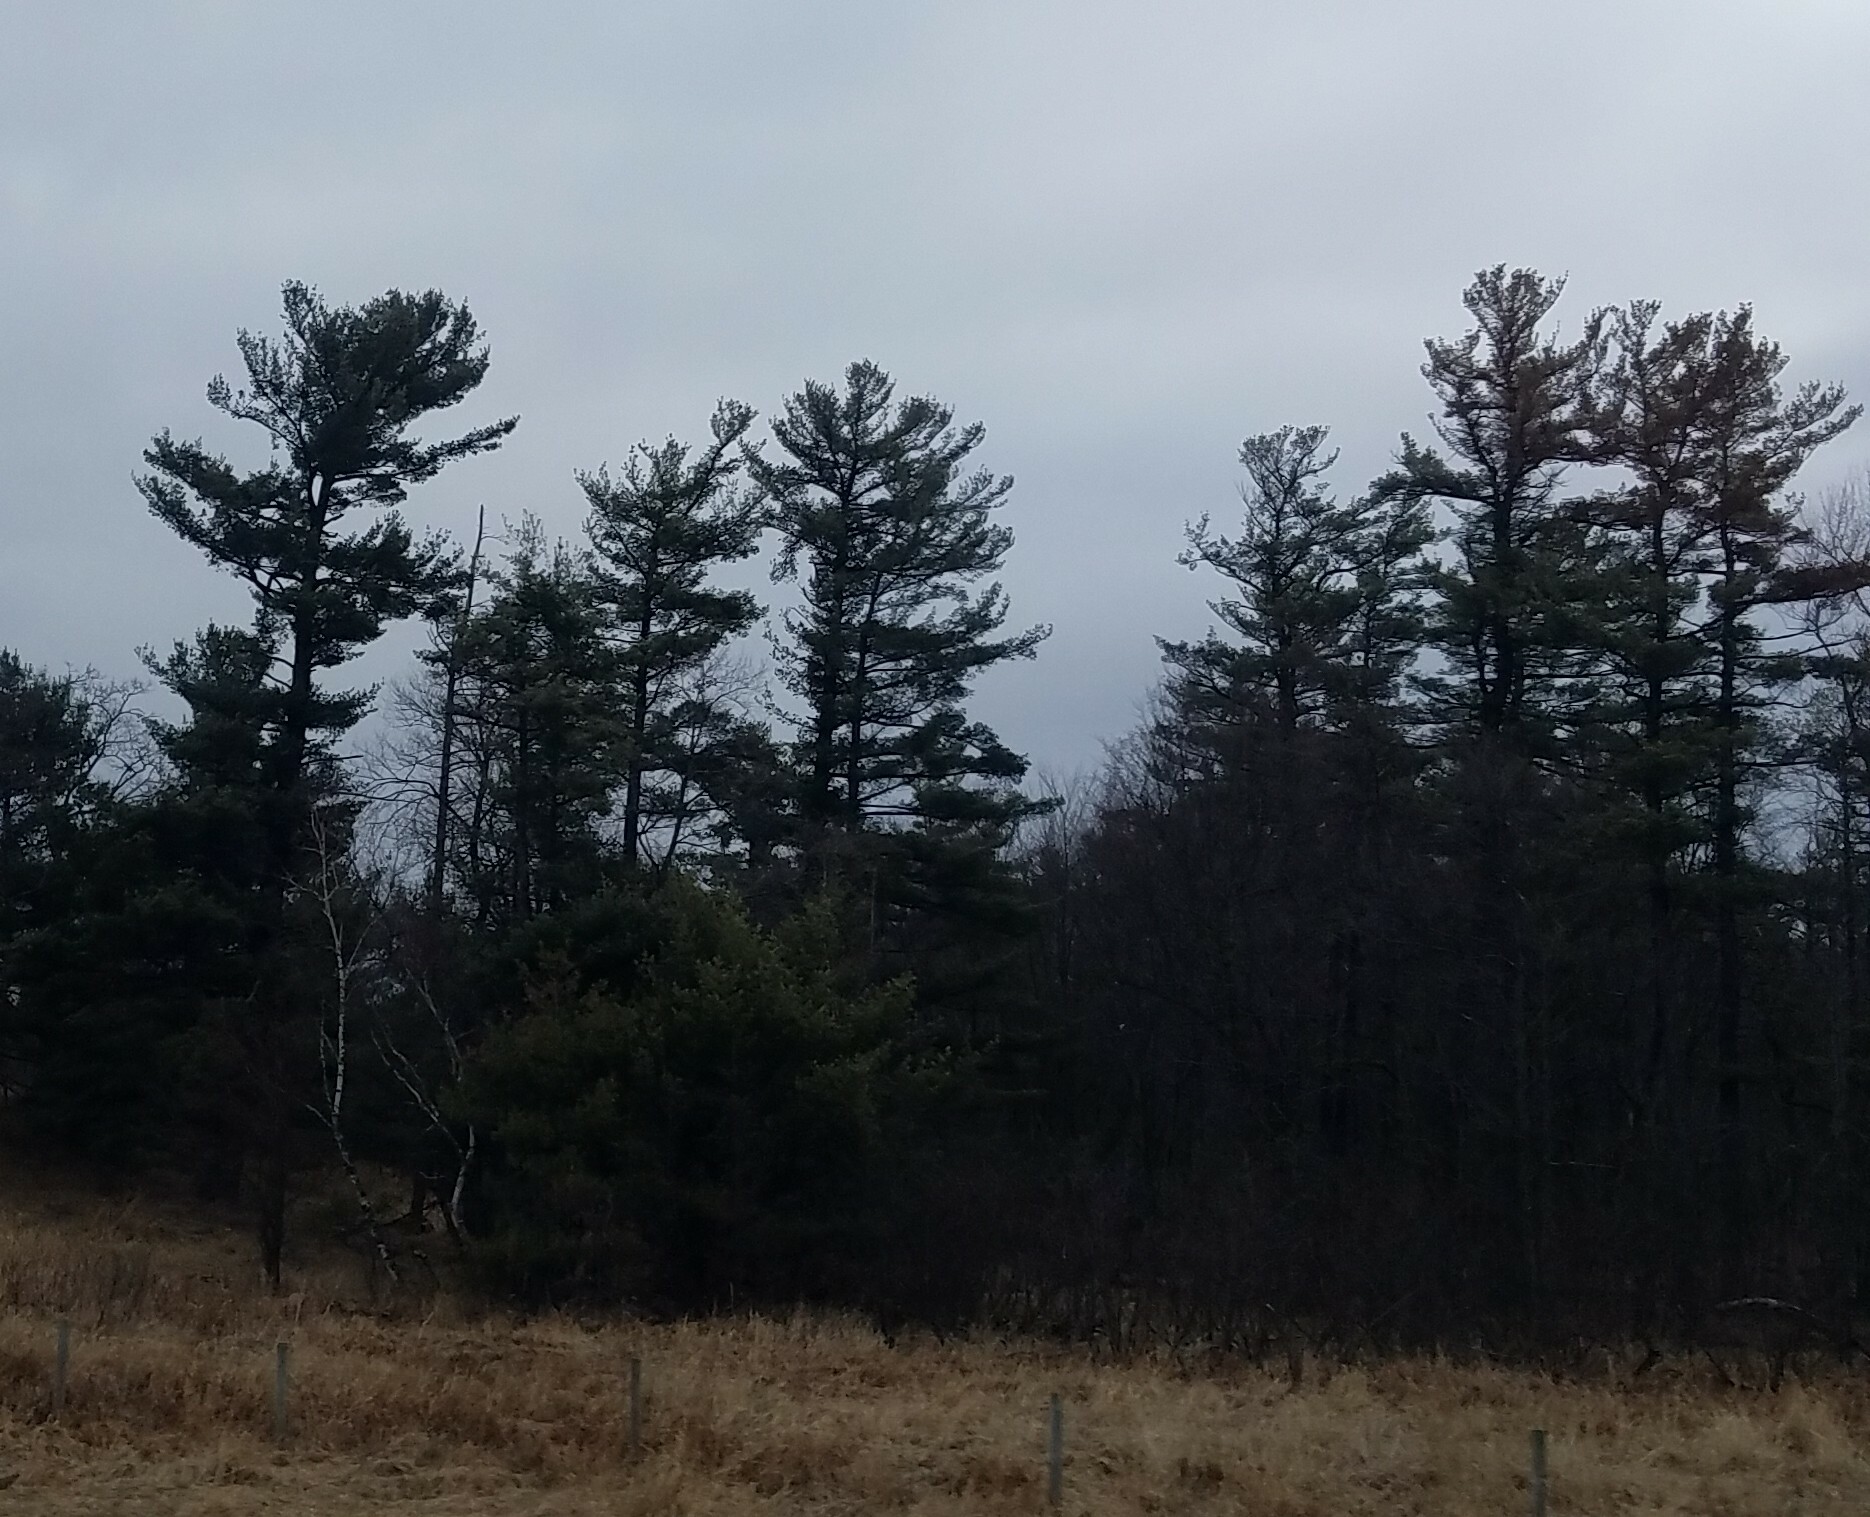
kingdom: Plantae
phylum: Tracheophyta
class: Pinopsida
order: Pinales
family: Pinaceae
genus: Pinus
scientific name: Pinus strobus
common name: Weymouth pine
